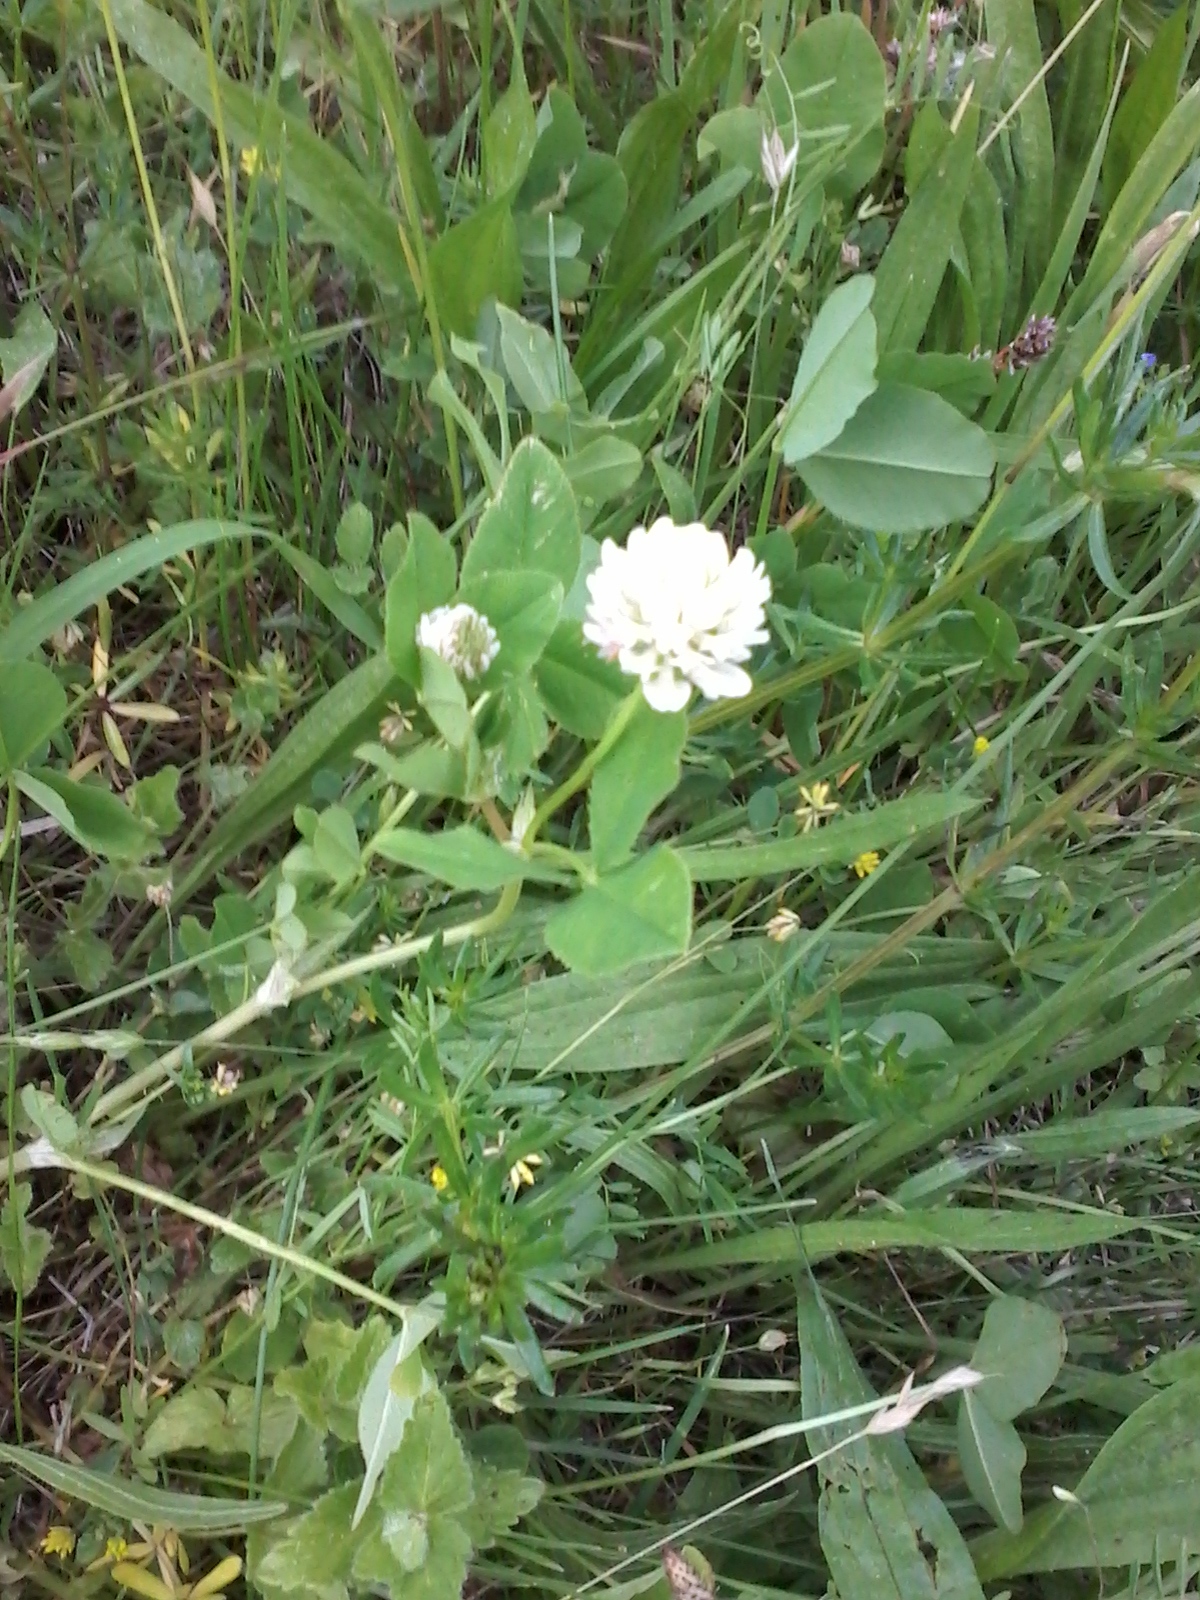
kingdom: Plantae
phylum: Tracheophyta
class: Magnoliopsida
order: Fabales
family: Fabaceae
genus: Trifolium
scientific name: Trifolium hybridum
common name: Alsike clover
